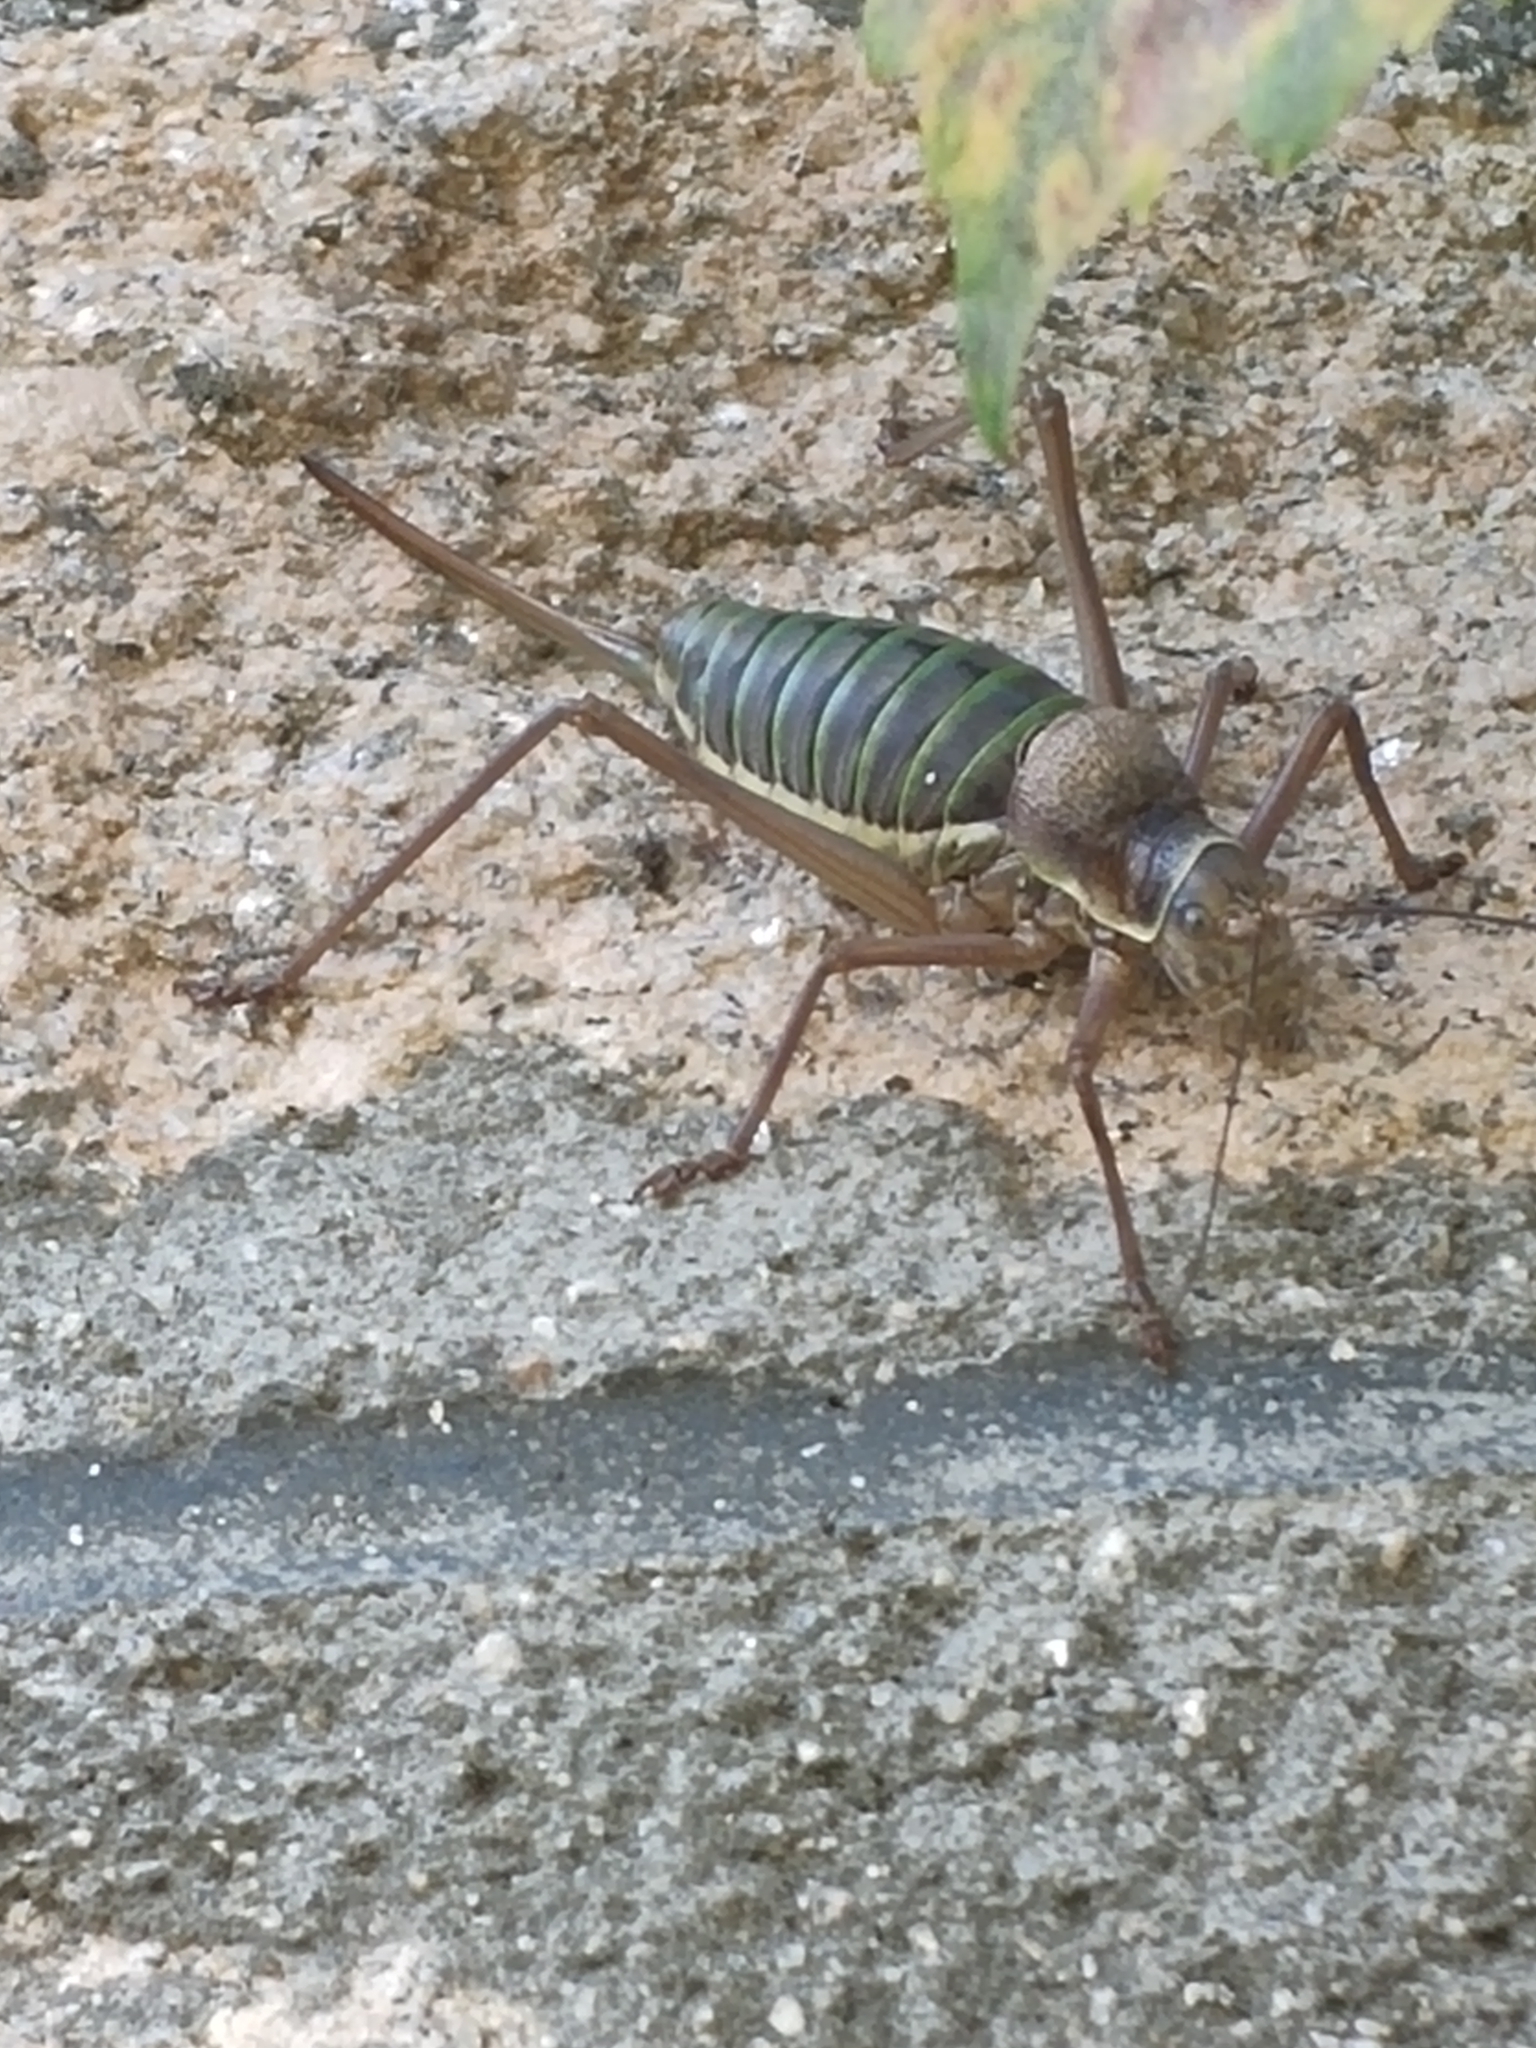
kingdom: Animalia
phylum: Arthropoda
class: Insecta
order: Orthoptera
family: Tettigoniidae
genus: Ephippiger
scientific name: Ephippiger diurnus
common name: Western saddle bush-cricket
